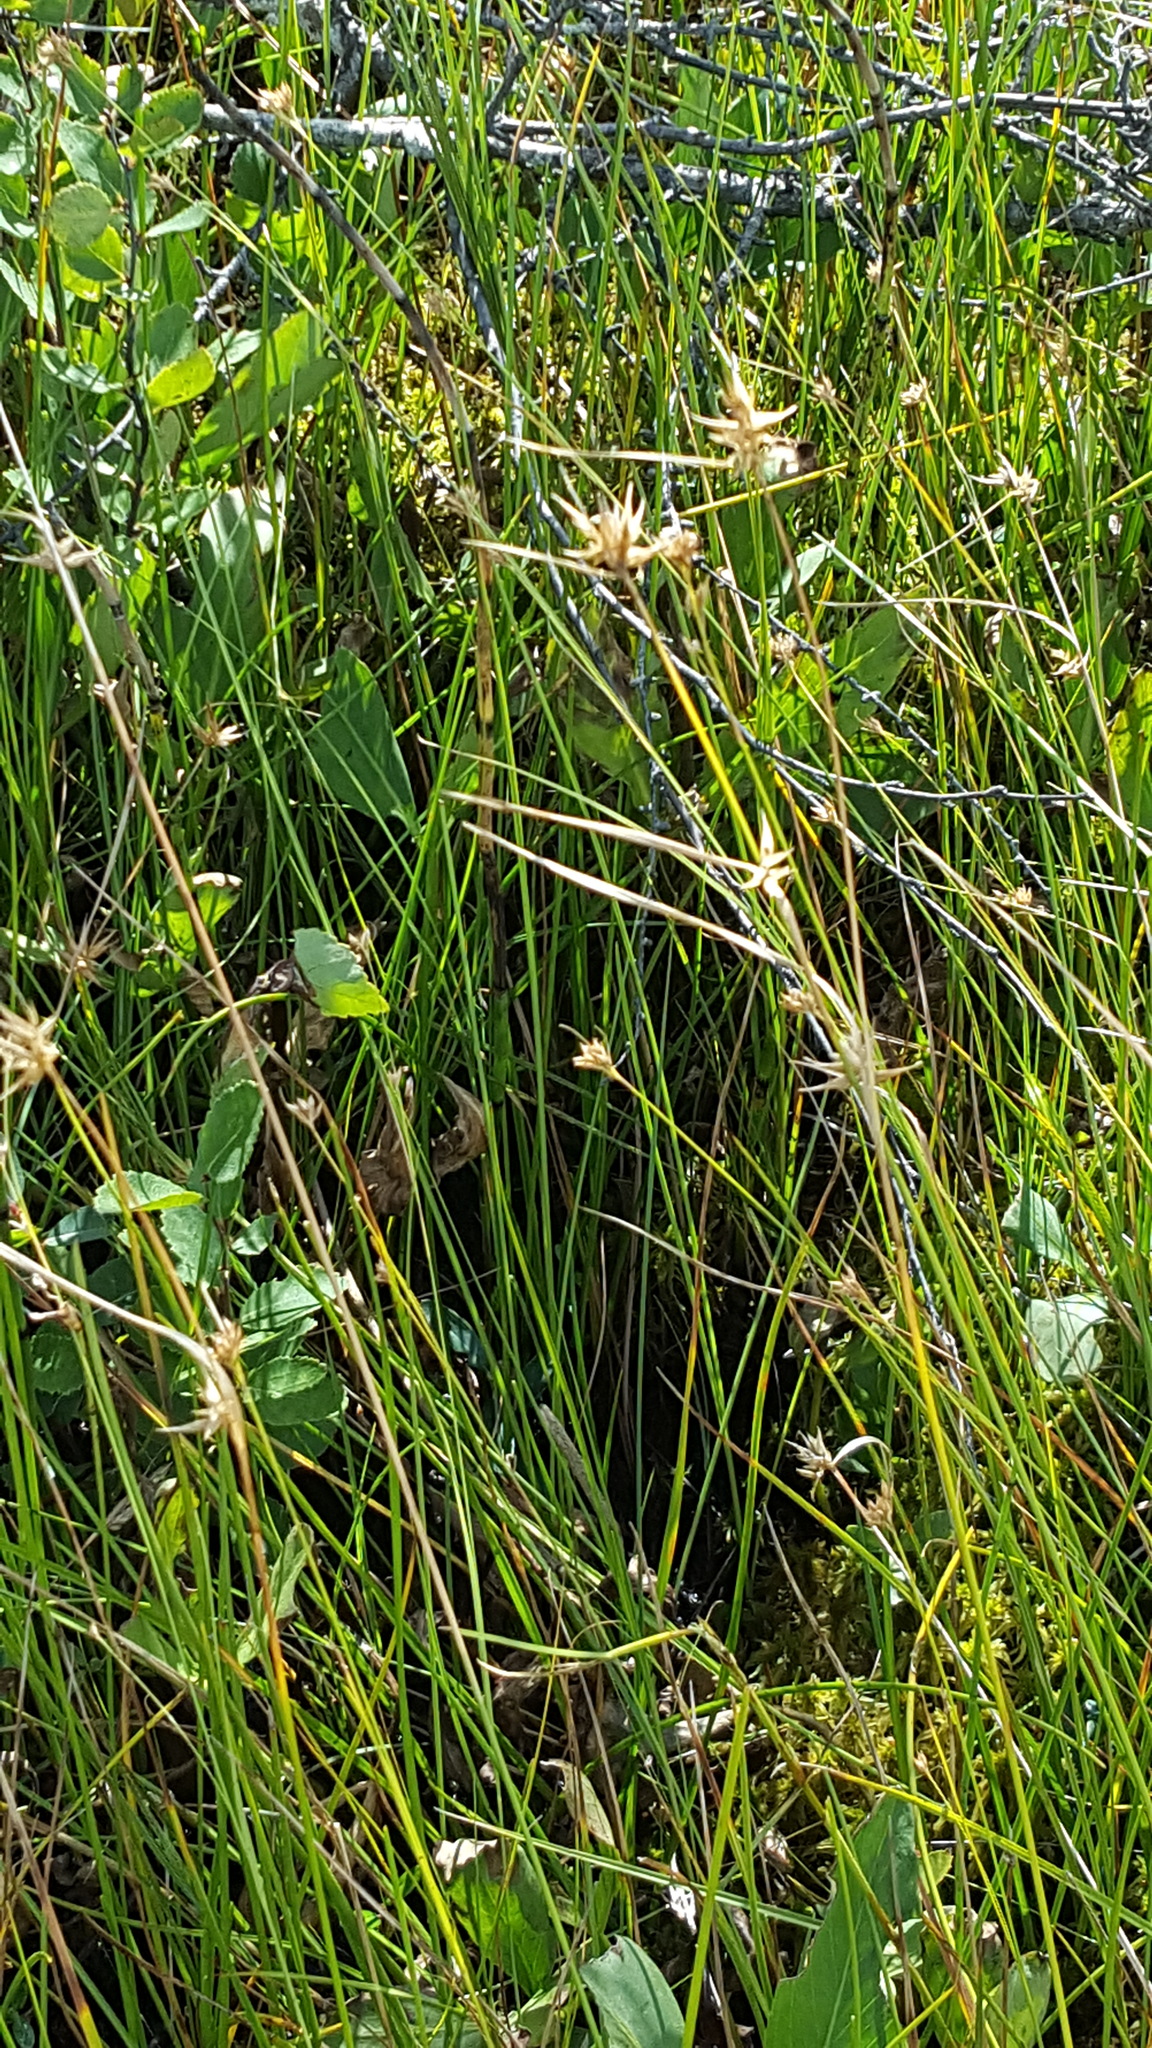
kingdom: Plantae
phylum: Tracheophyta
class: Liliopsida
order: Poales
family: Cyperaceae
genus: Rhynchospora
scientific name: Rhynchospora alba
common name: White beak-sedge
